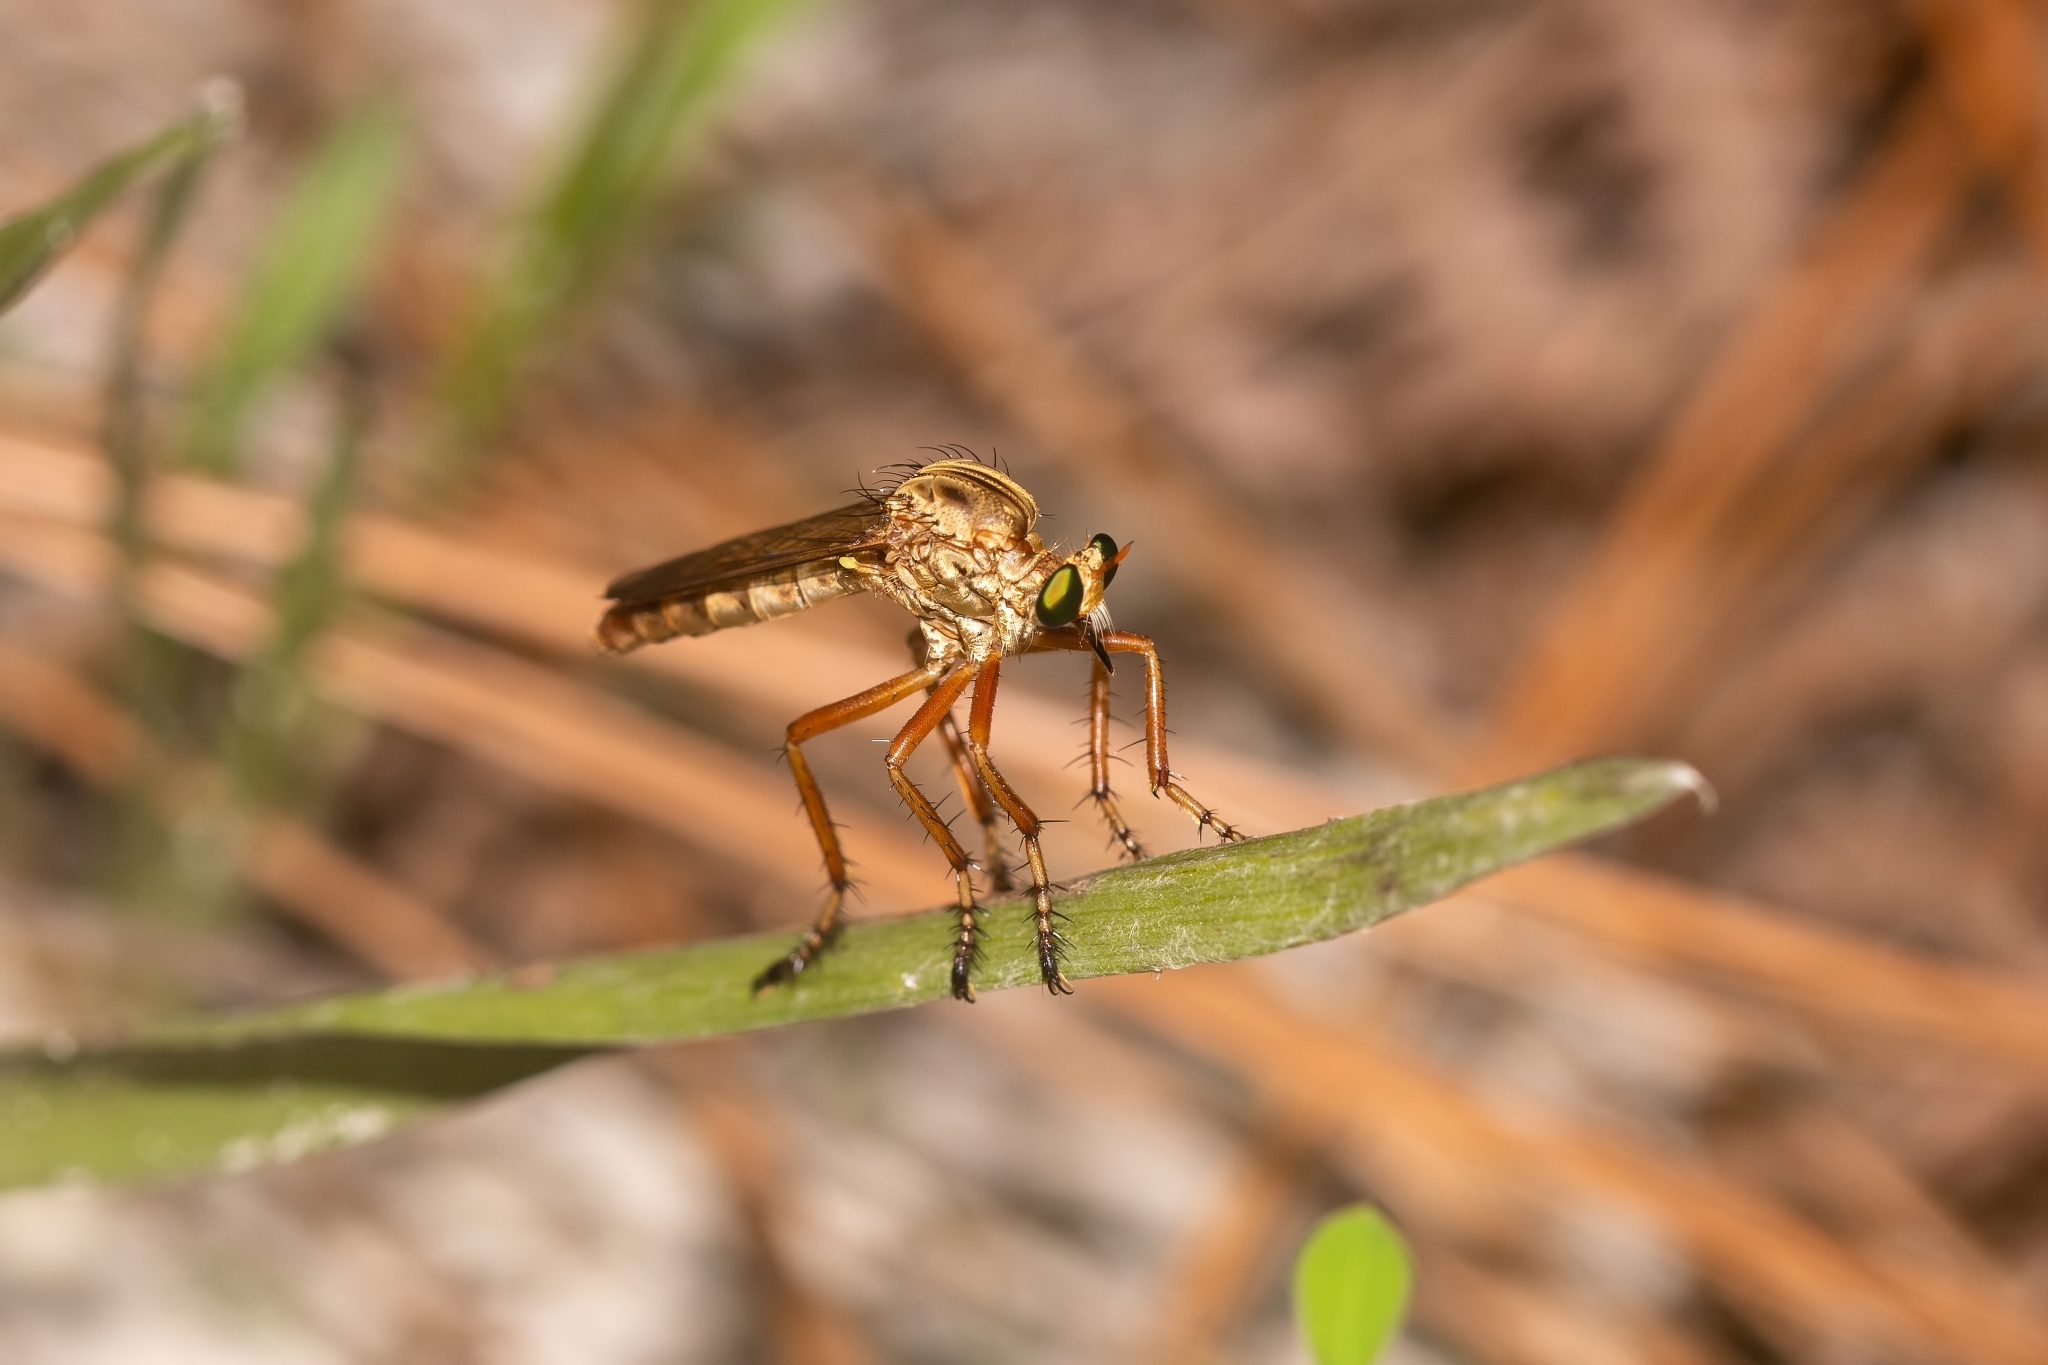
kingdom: Animalia
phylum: Arthropoda
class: Insecta
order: Diptera
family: Asilidae
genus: Diogmites
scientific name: Diogmites crudelis
